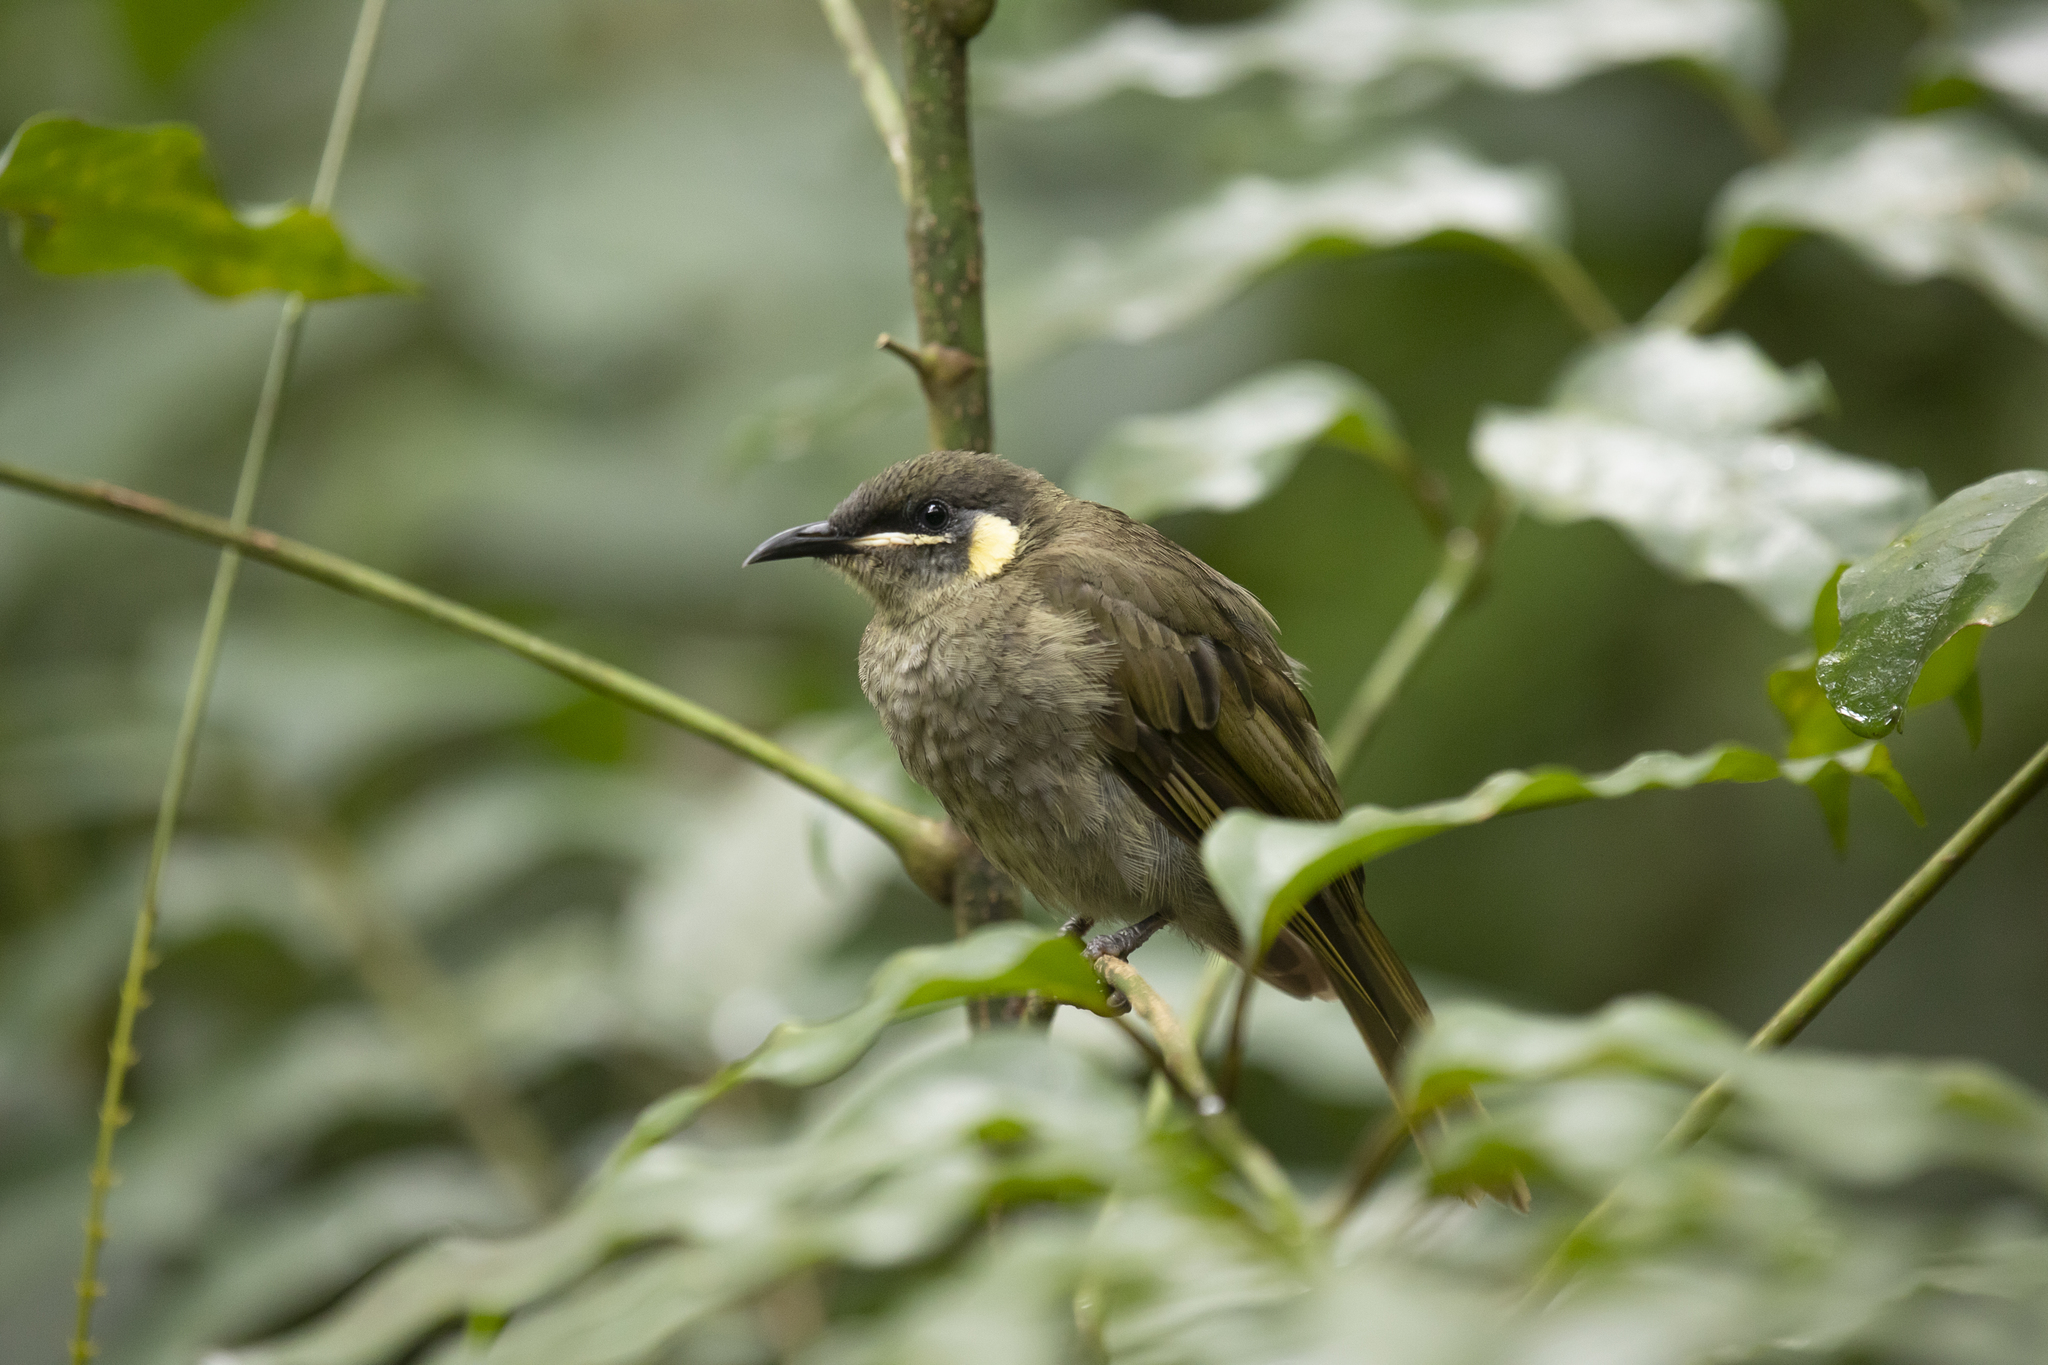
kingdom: Animalia
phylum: Chordata
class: Aves
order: Passeriformes
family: Meliphagidae
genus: Meliphaga
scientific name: Meliphaga lewinii
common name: Lewin's honeyeater
